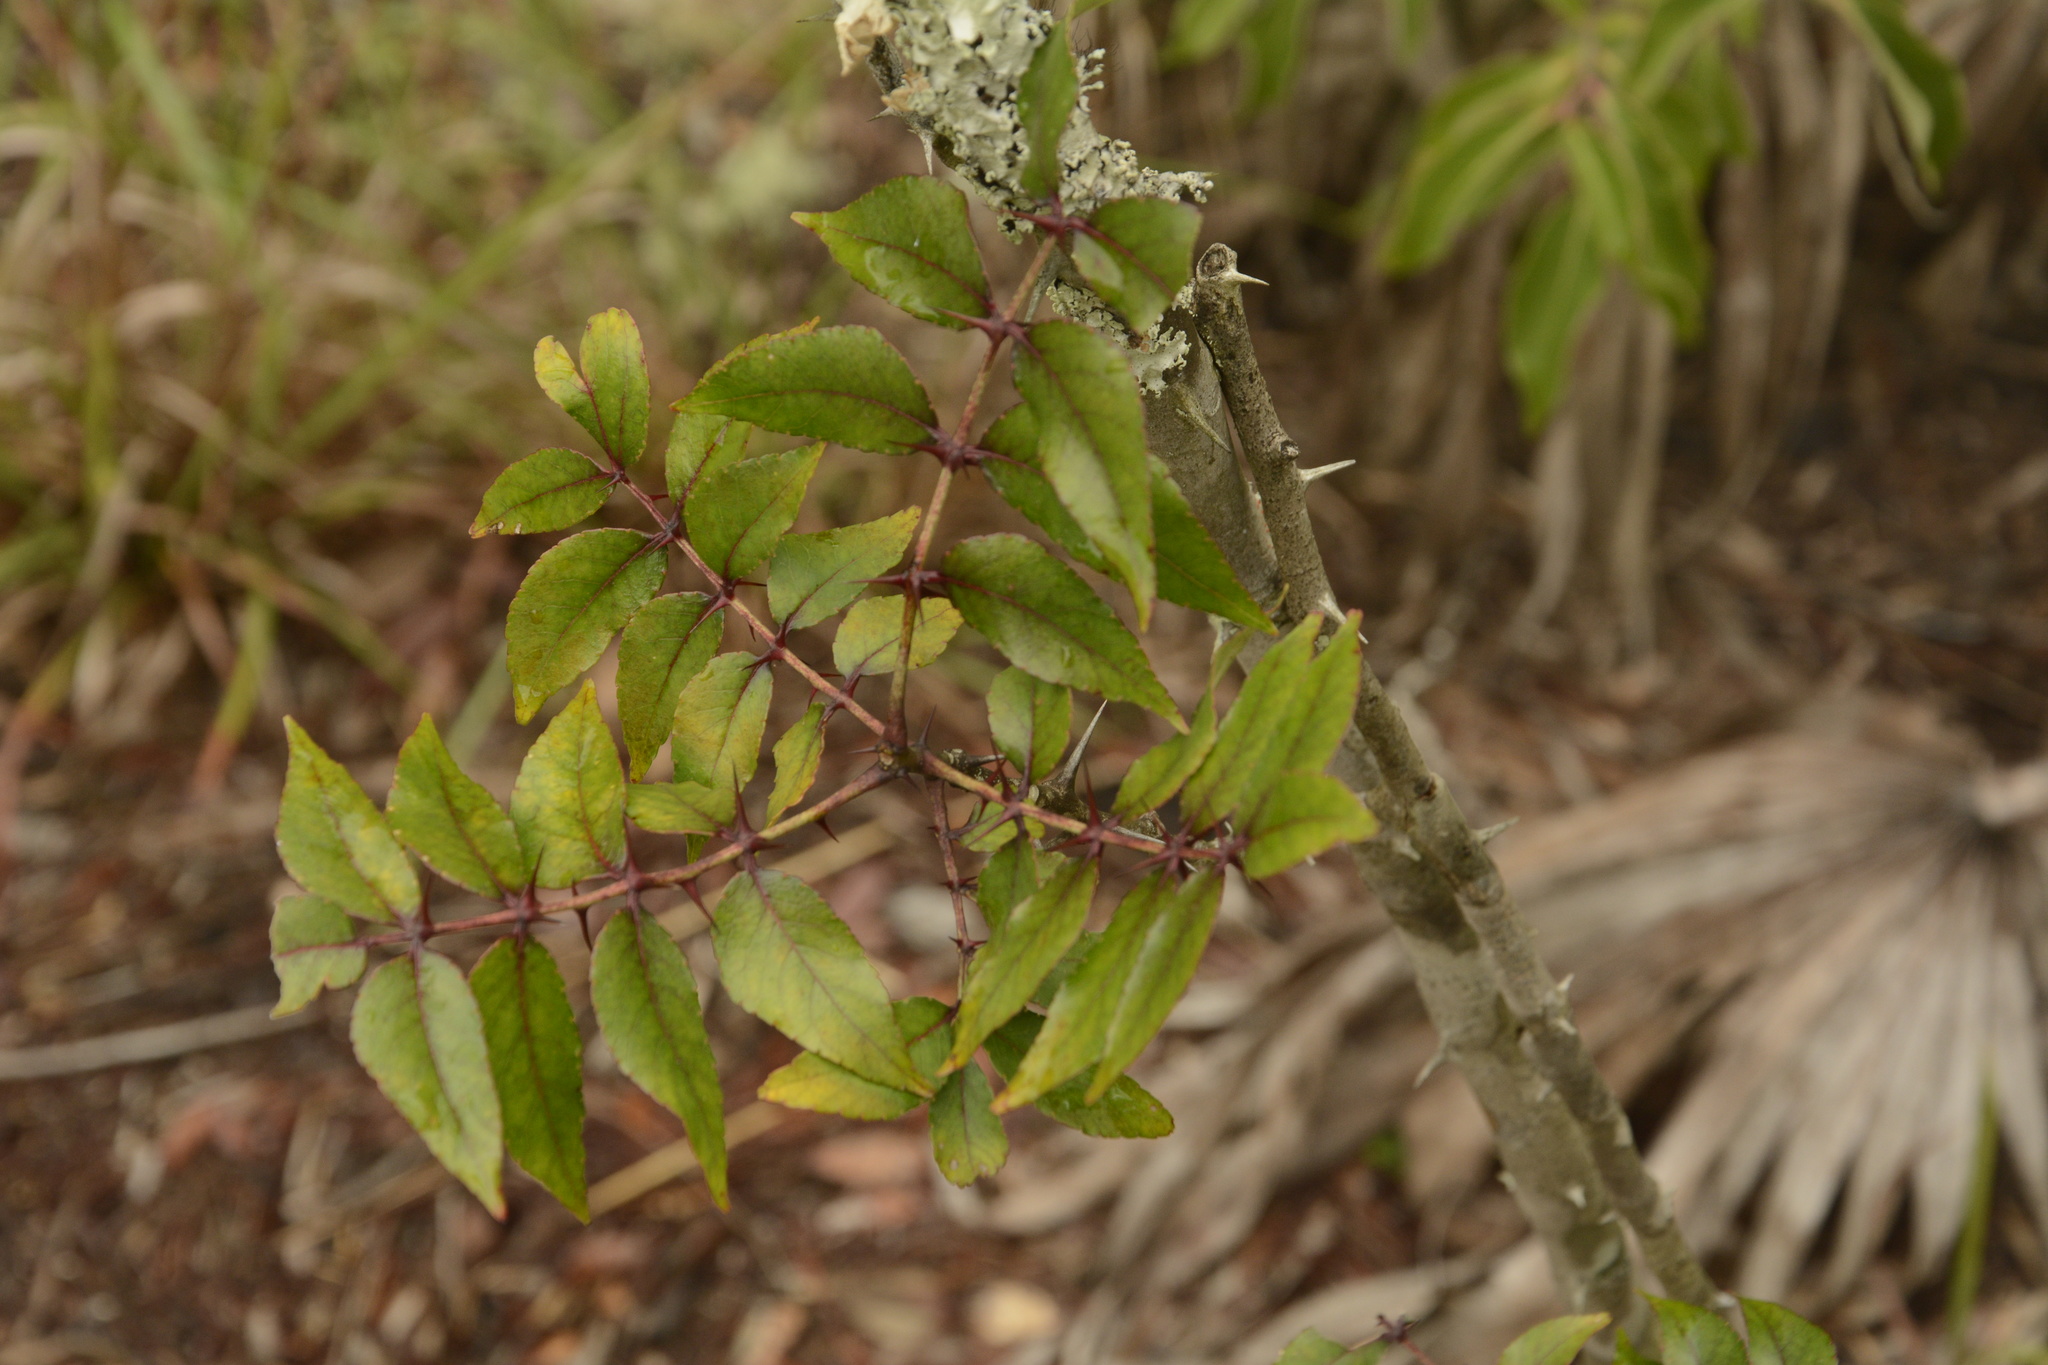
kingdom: Plantae
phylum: Tracheophyta
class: Magnoliopsida
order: Sapindales
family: Rutaceae
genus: Zanthoxylum
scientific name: Zanthoxylum clava-herculis
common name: Hercules'-club
